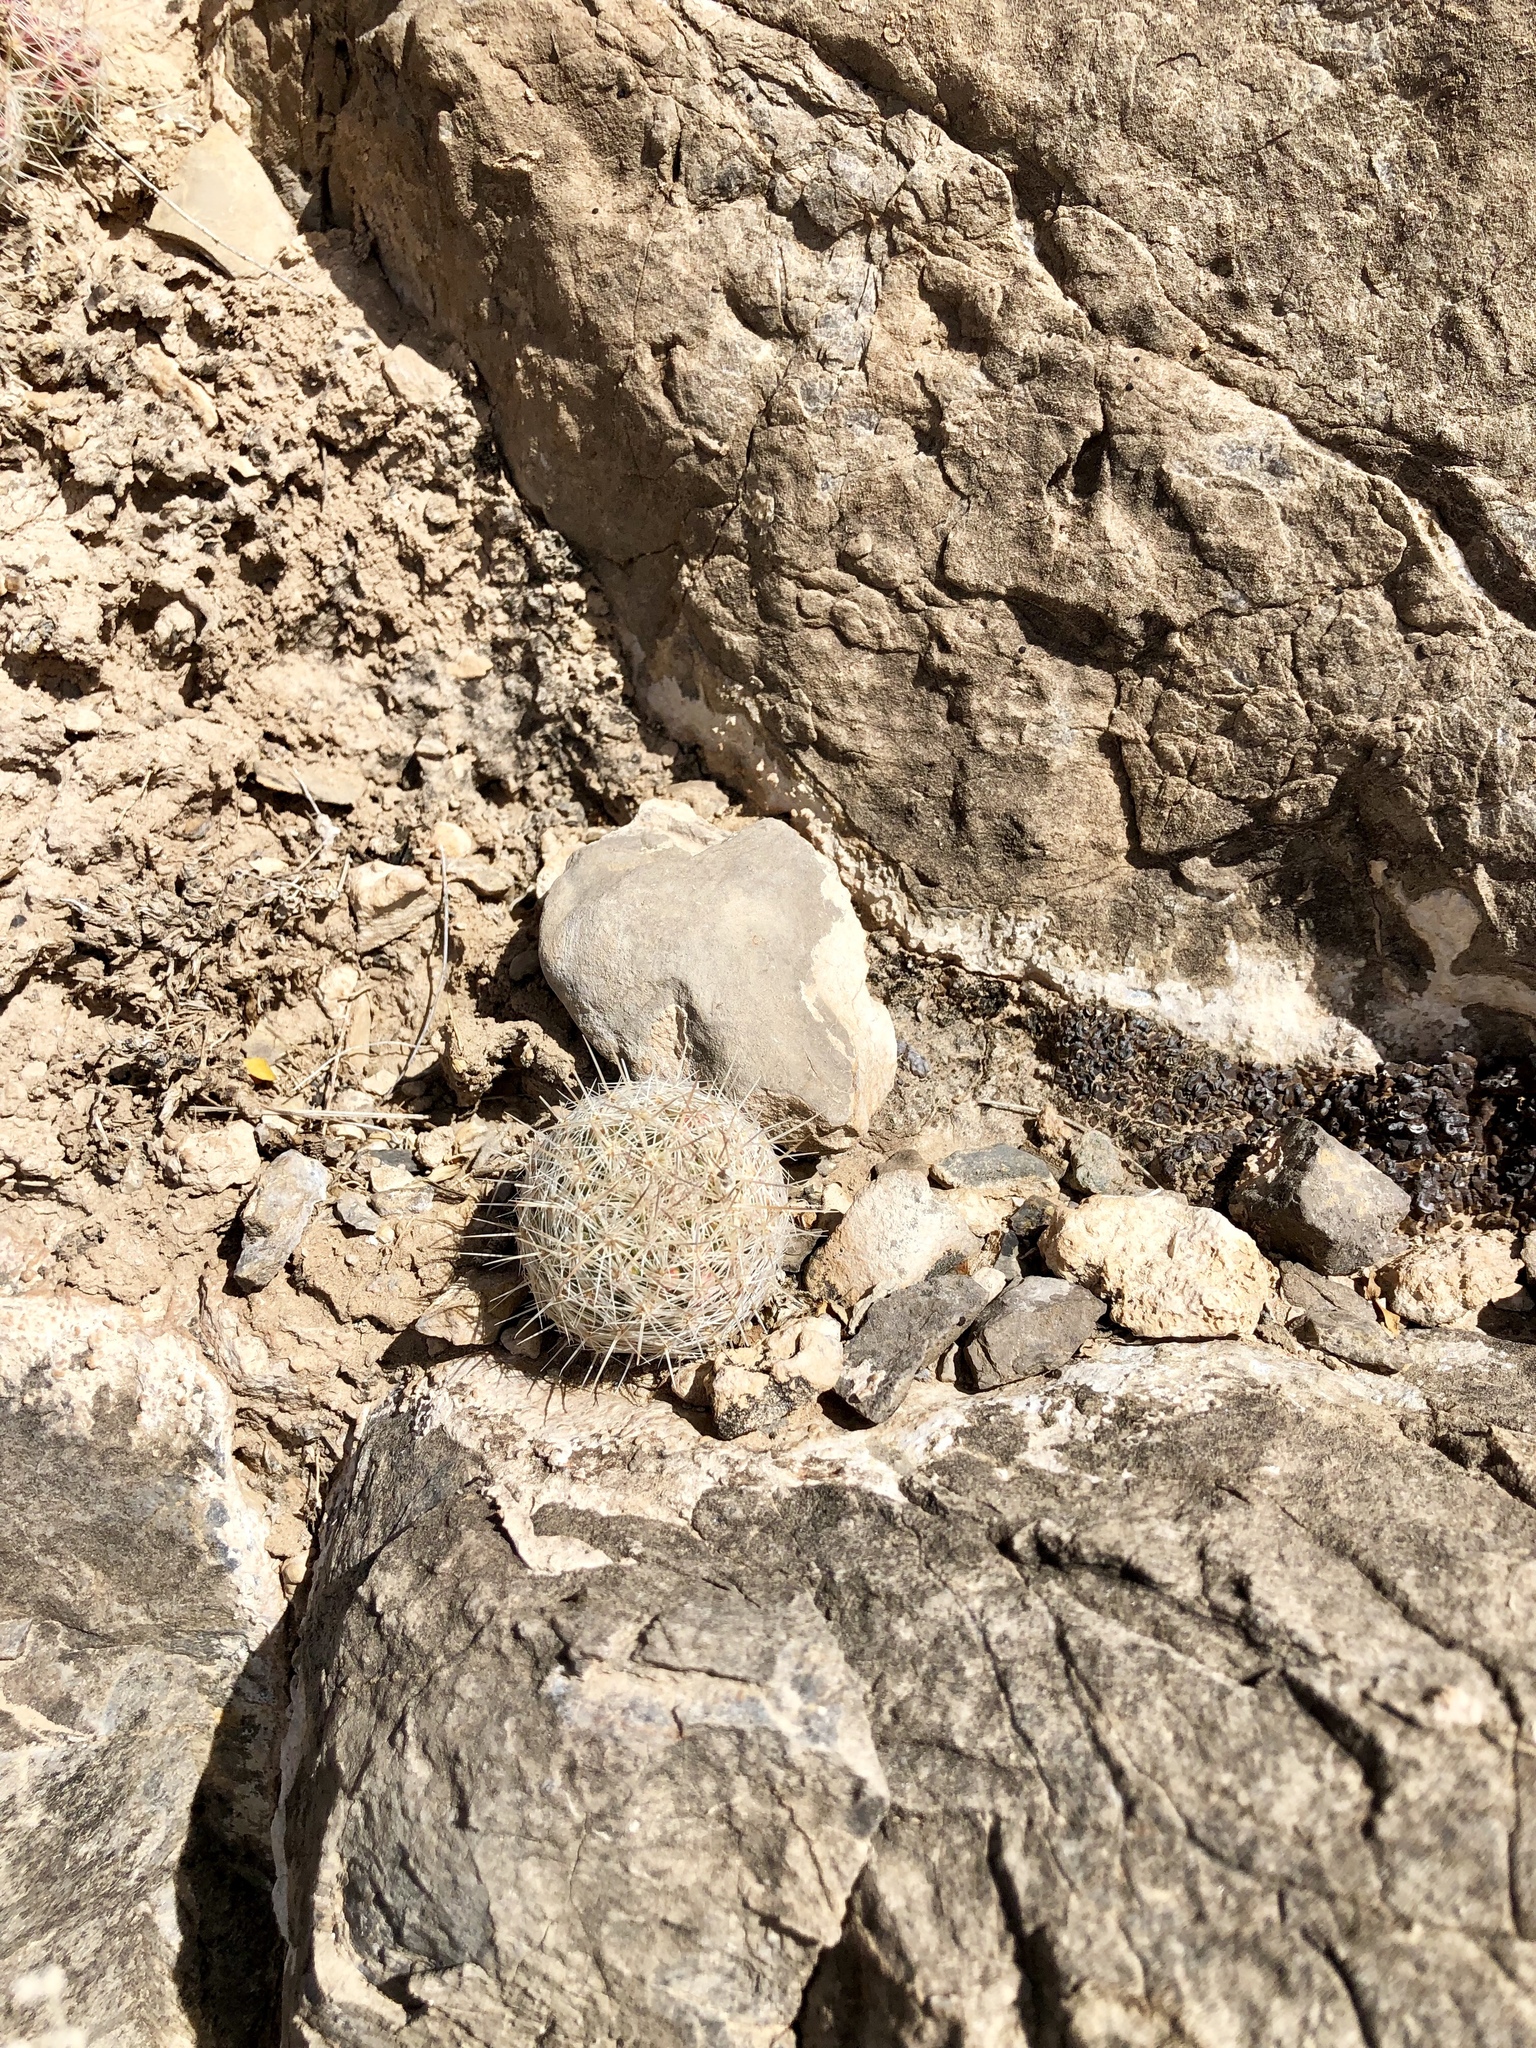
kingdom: Plantae
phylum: Tracheophyta
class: Magnoliopsida
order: Caryophyllales
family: Cactaceae
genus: Pelecyphora
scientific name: Pelecyphora tuberculosa
